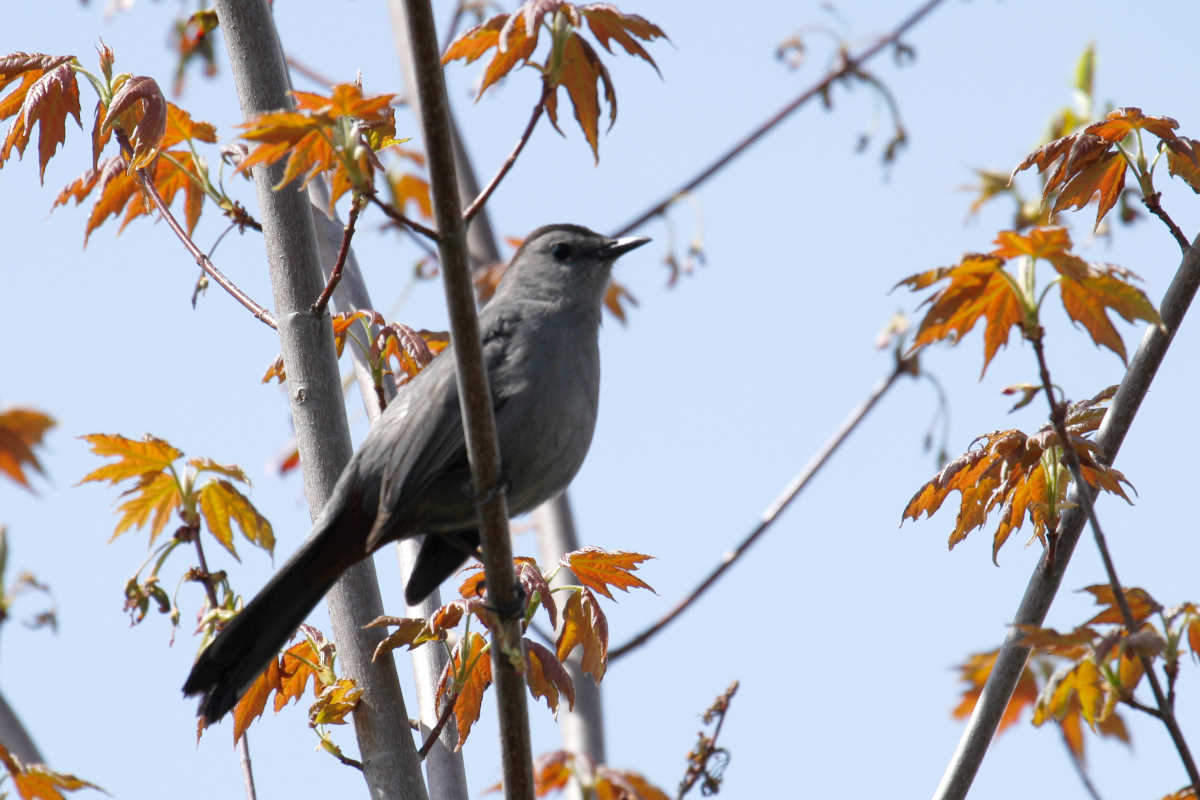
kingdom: Animalia
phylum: Chordata
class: Aves
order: Passeriformes
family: Mimidae
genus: Dumetella
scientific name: Dumetella carolinensis
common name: Gray catbird
